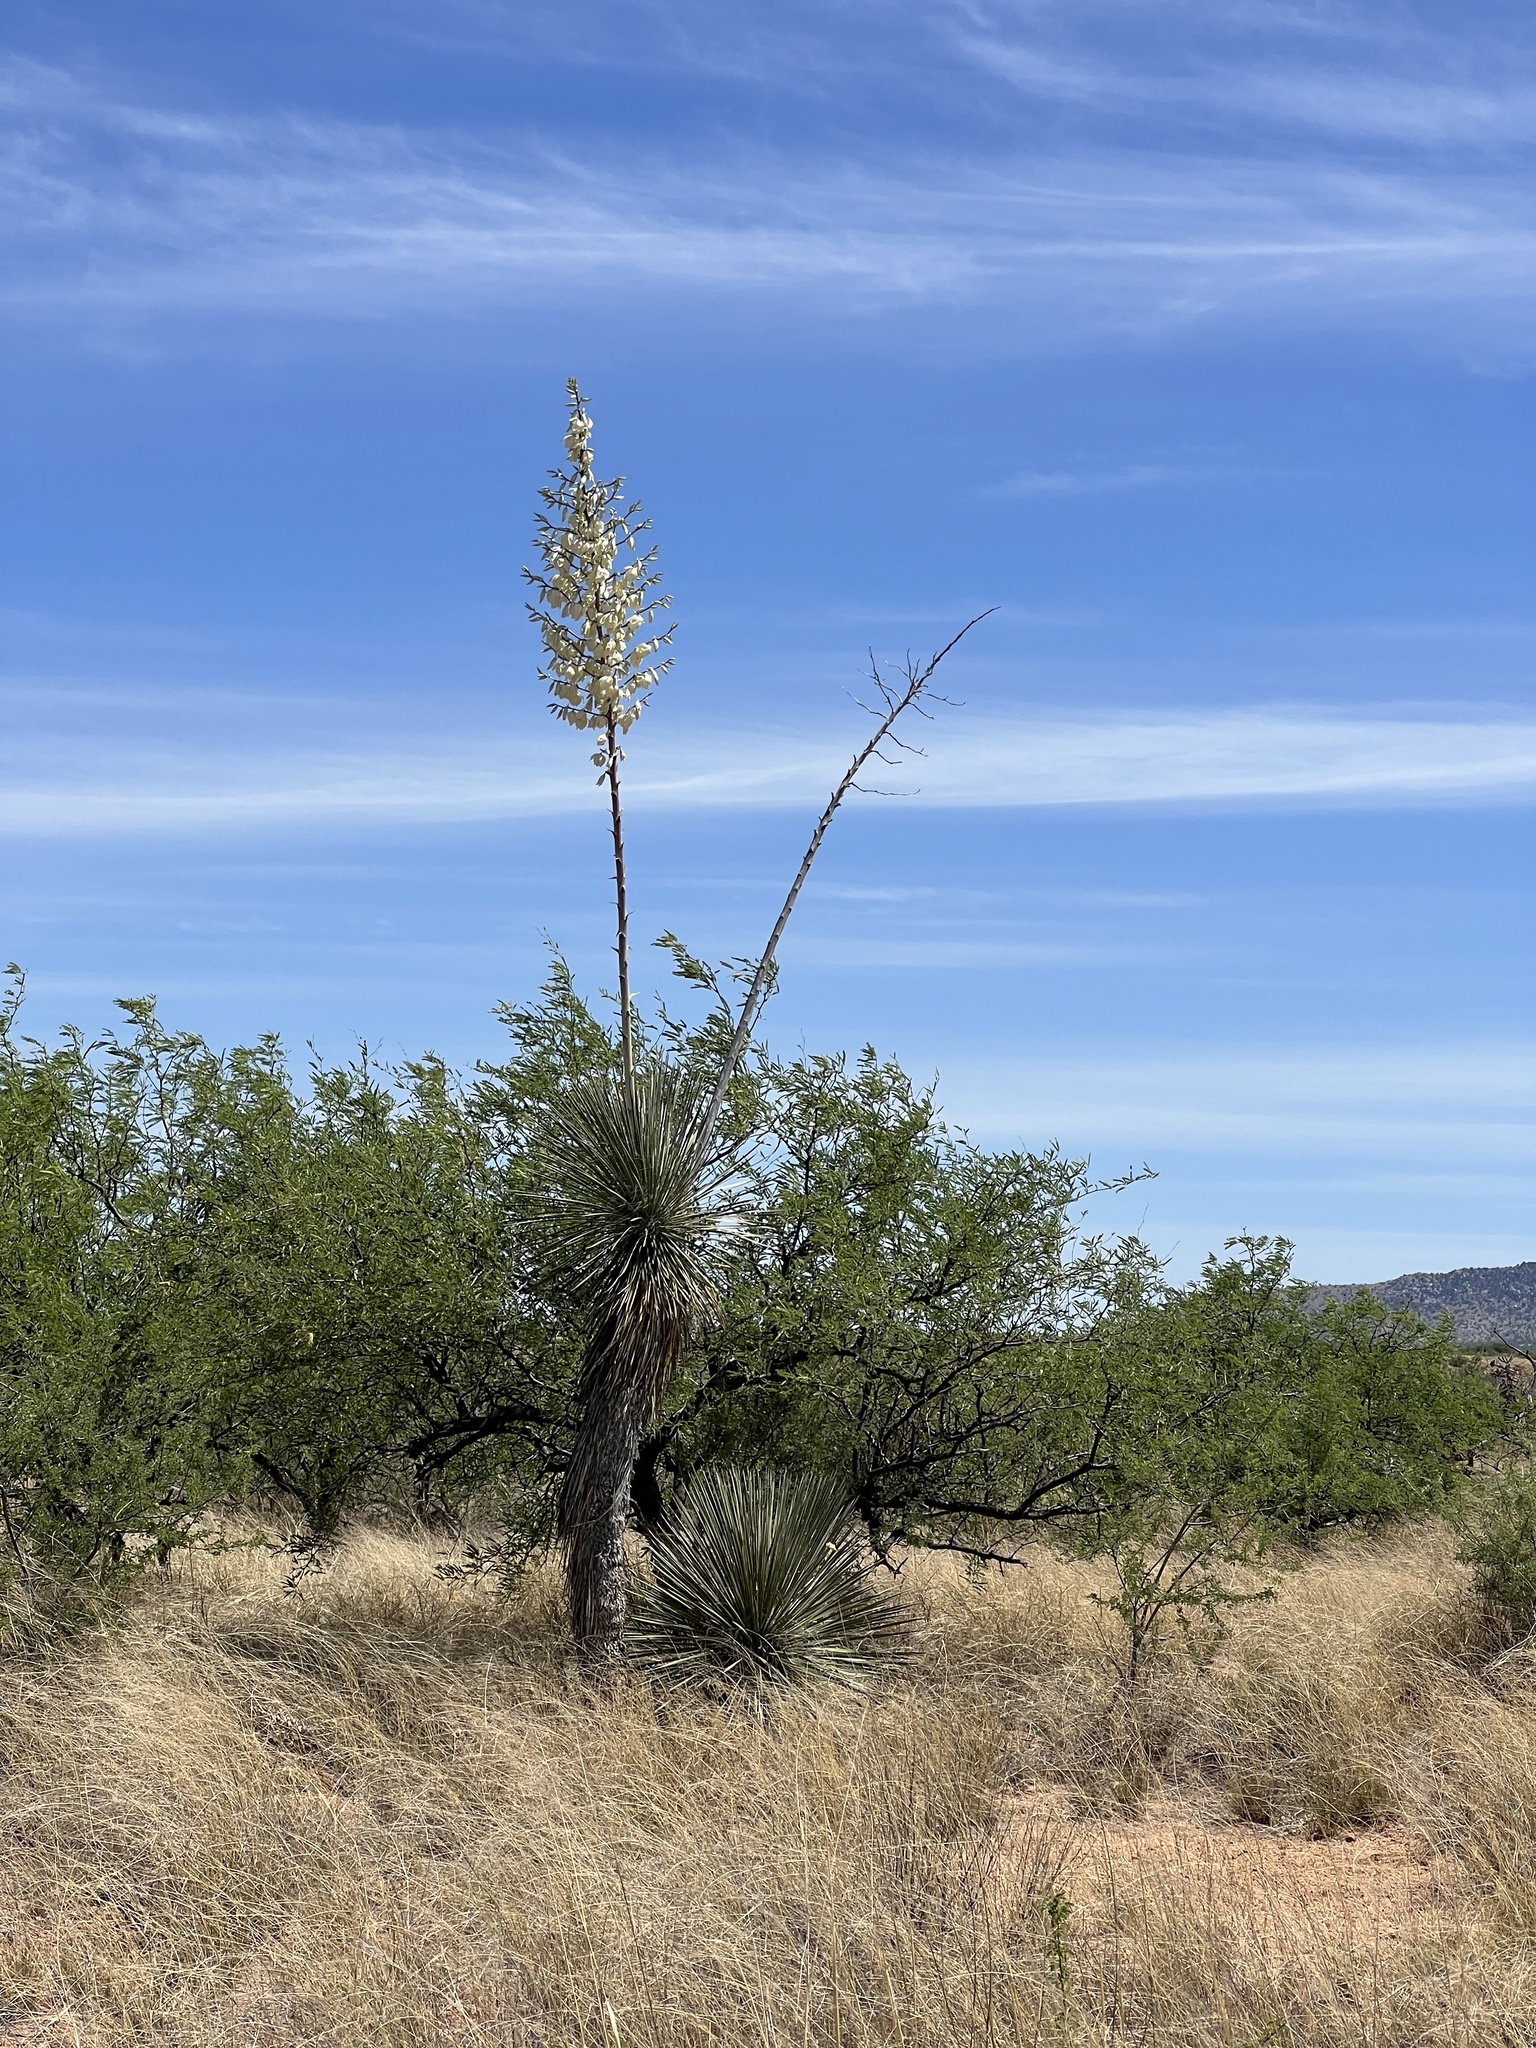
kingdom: Plantae
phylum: Tracheophyta
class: Liliopsida
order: Asparagales
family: Asparagaceae
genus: Yucca
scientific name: Yucca elata
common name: Palmella
